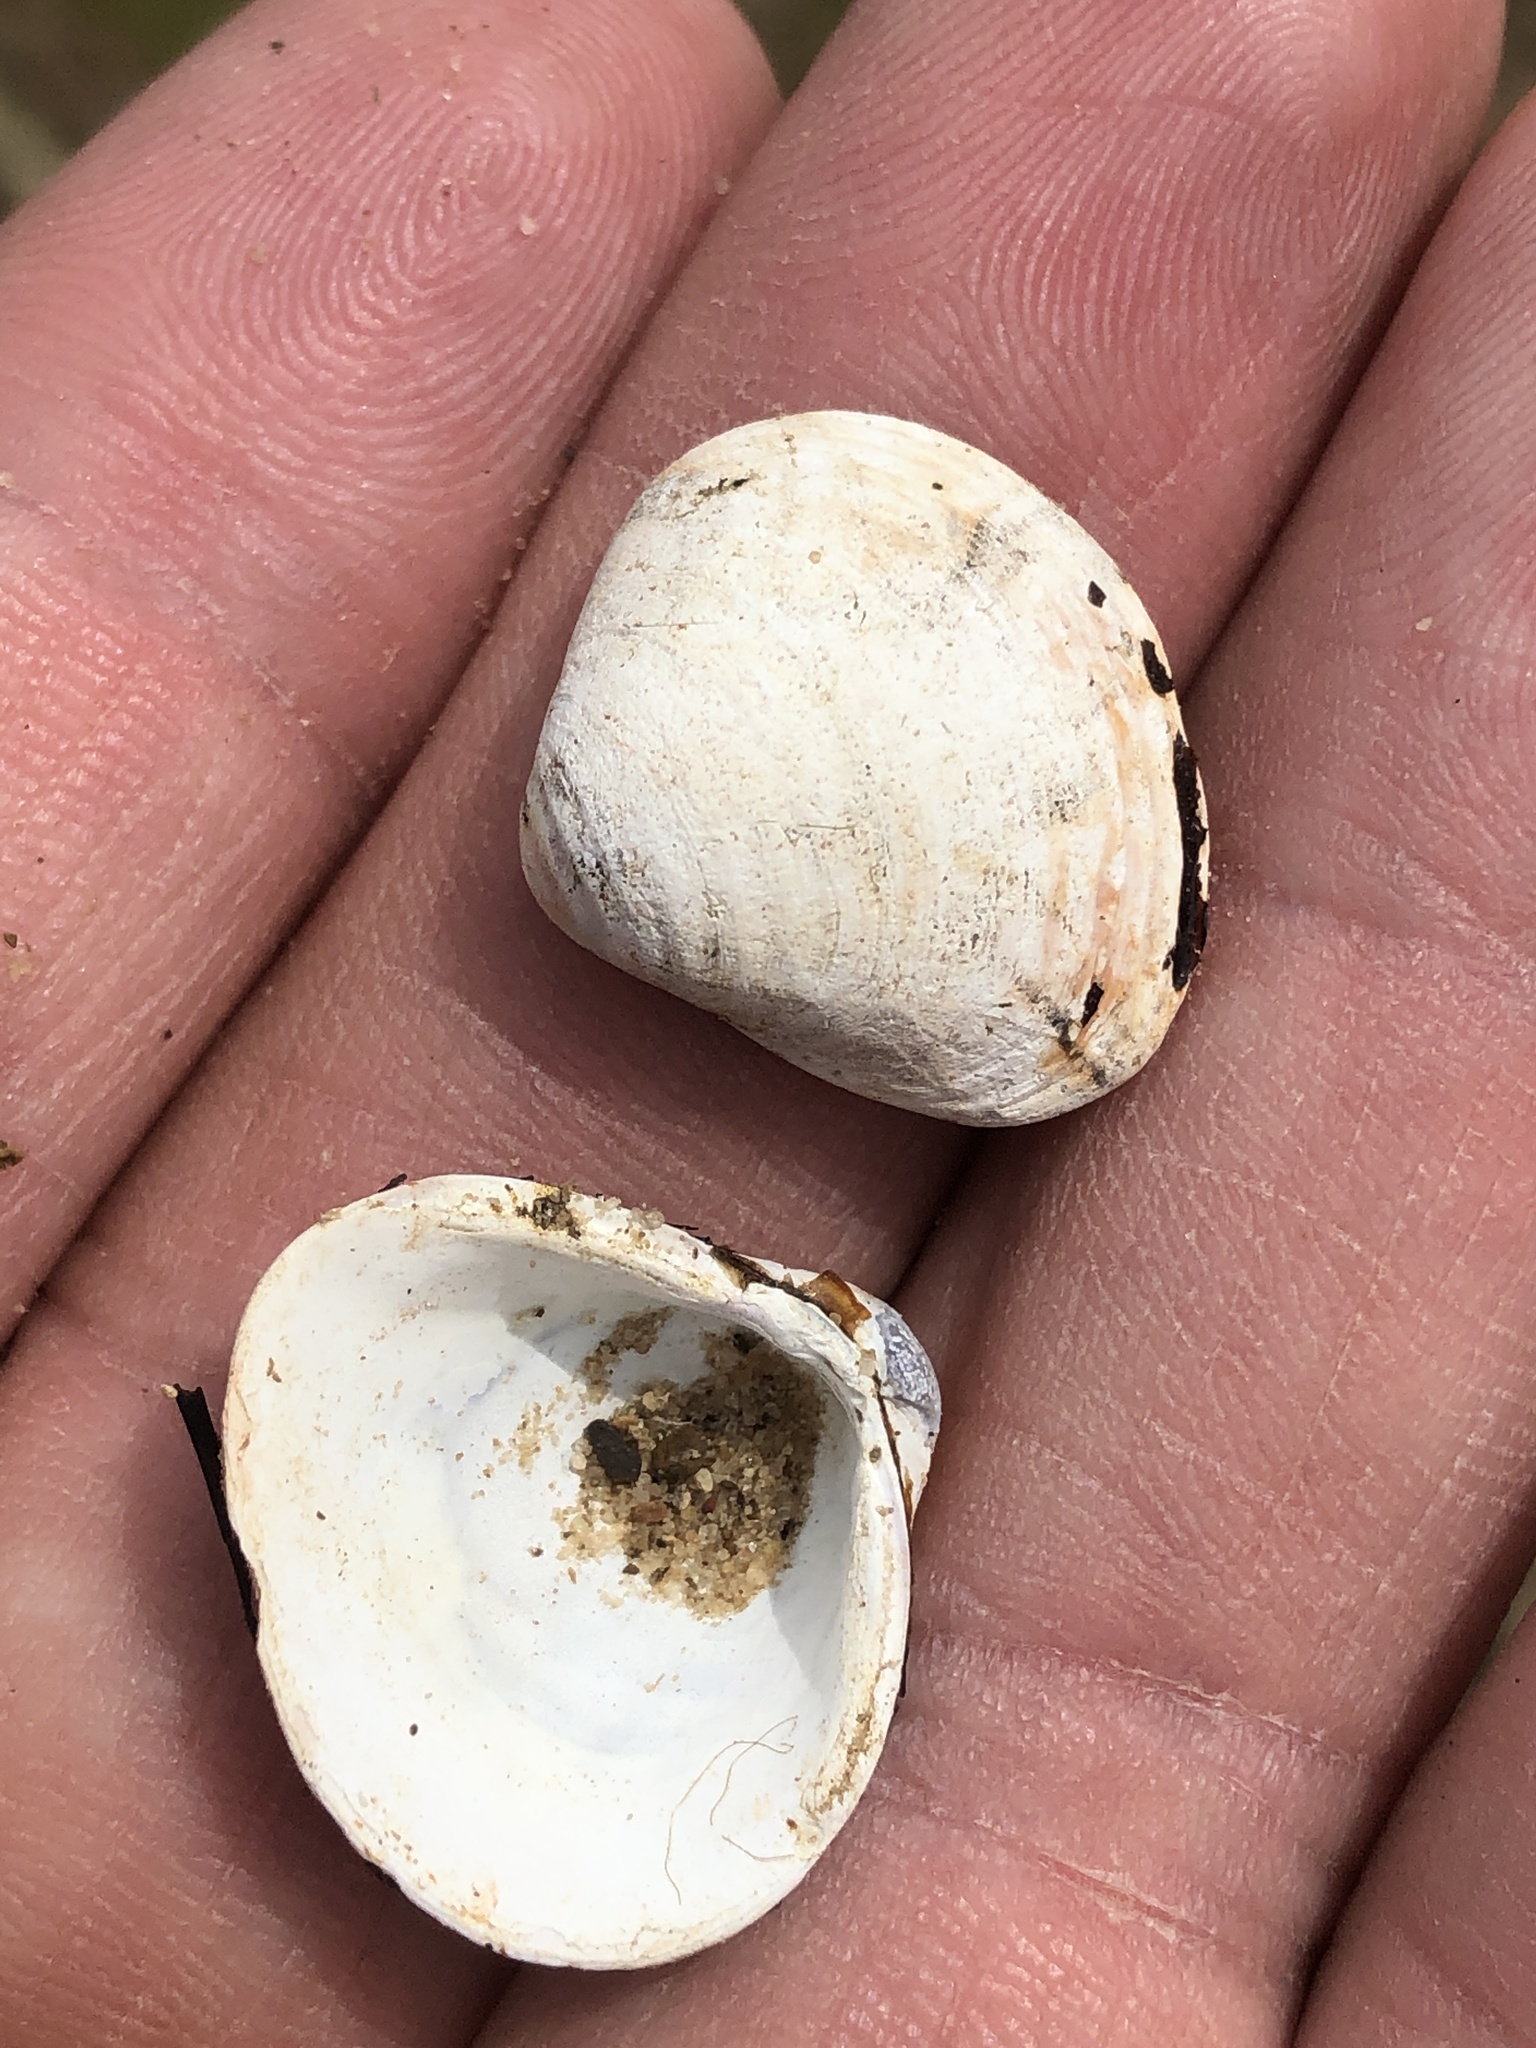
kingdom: Animalia
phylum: Mollusca
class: Bivalvia
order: Venerida
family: Cyrenidae
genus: Corbicula
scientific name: Corbicula fluminea
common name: Asian clam
